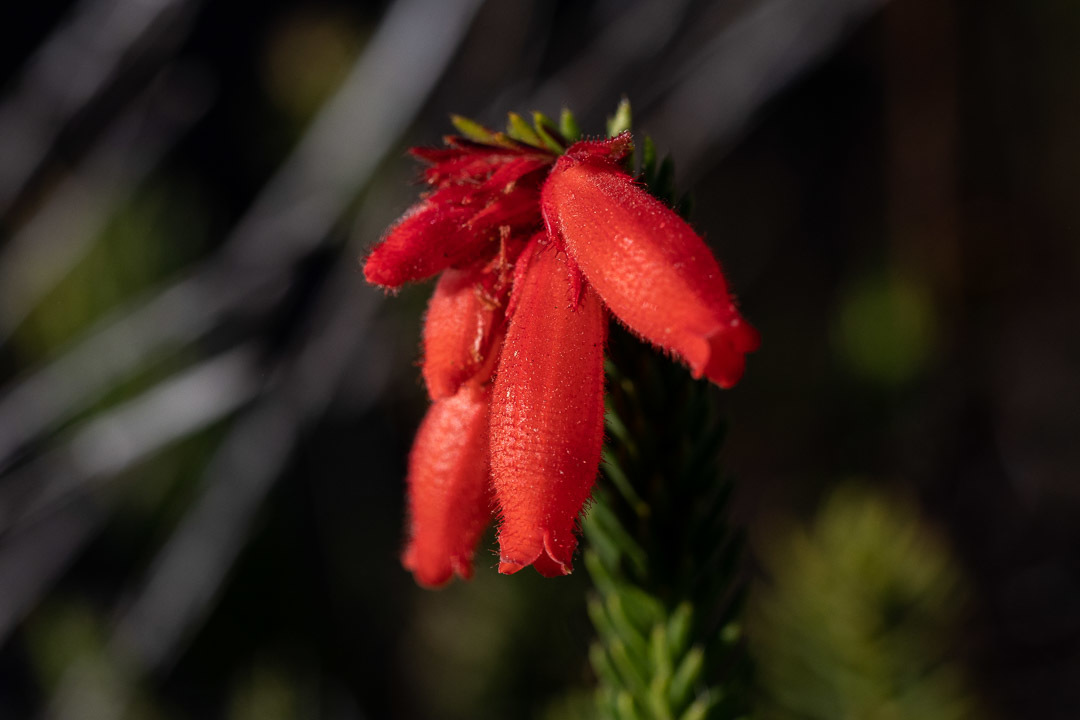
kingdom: Plantae
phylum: Tracheophyta
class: Magnoliopsida
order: Ericales
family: Ericaceae
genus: Erica
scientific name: Erica cerinthoides
